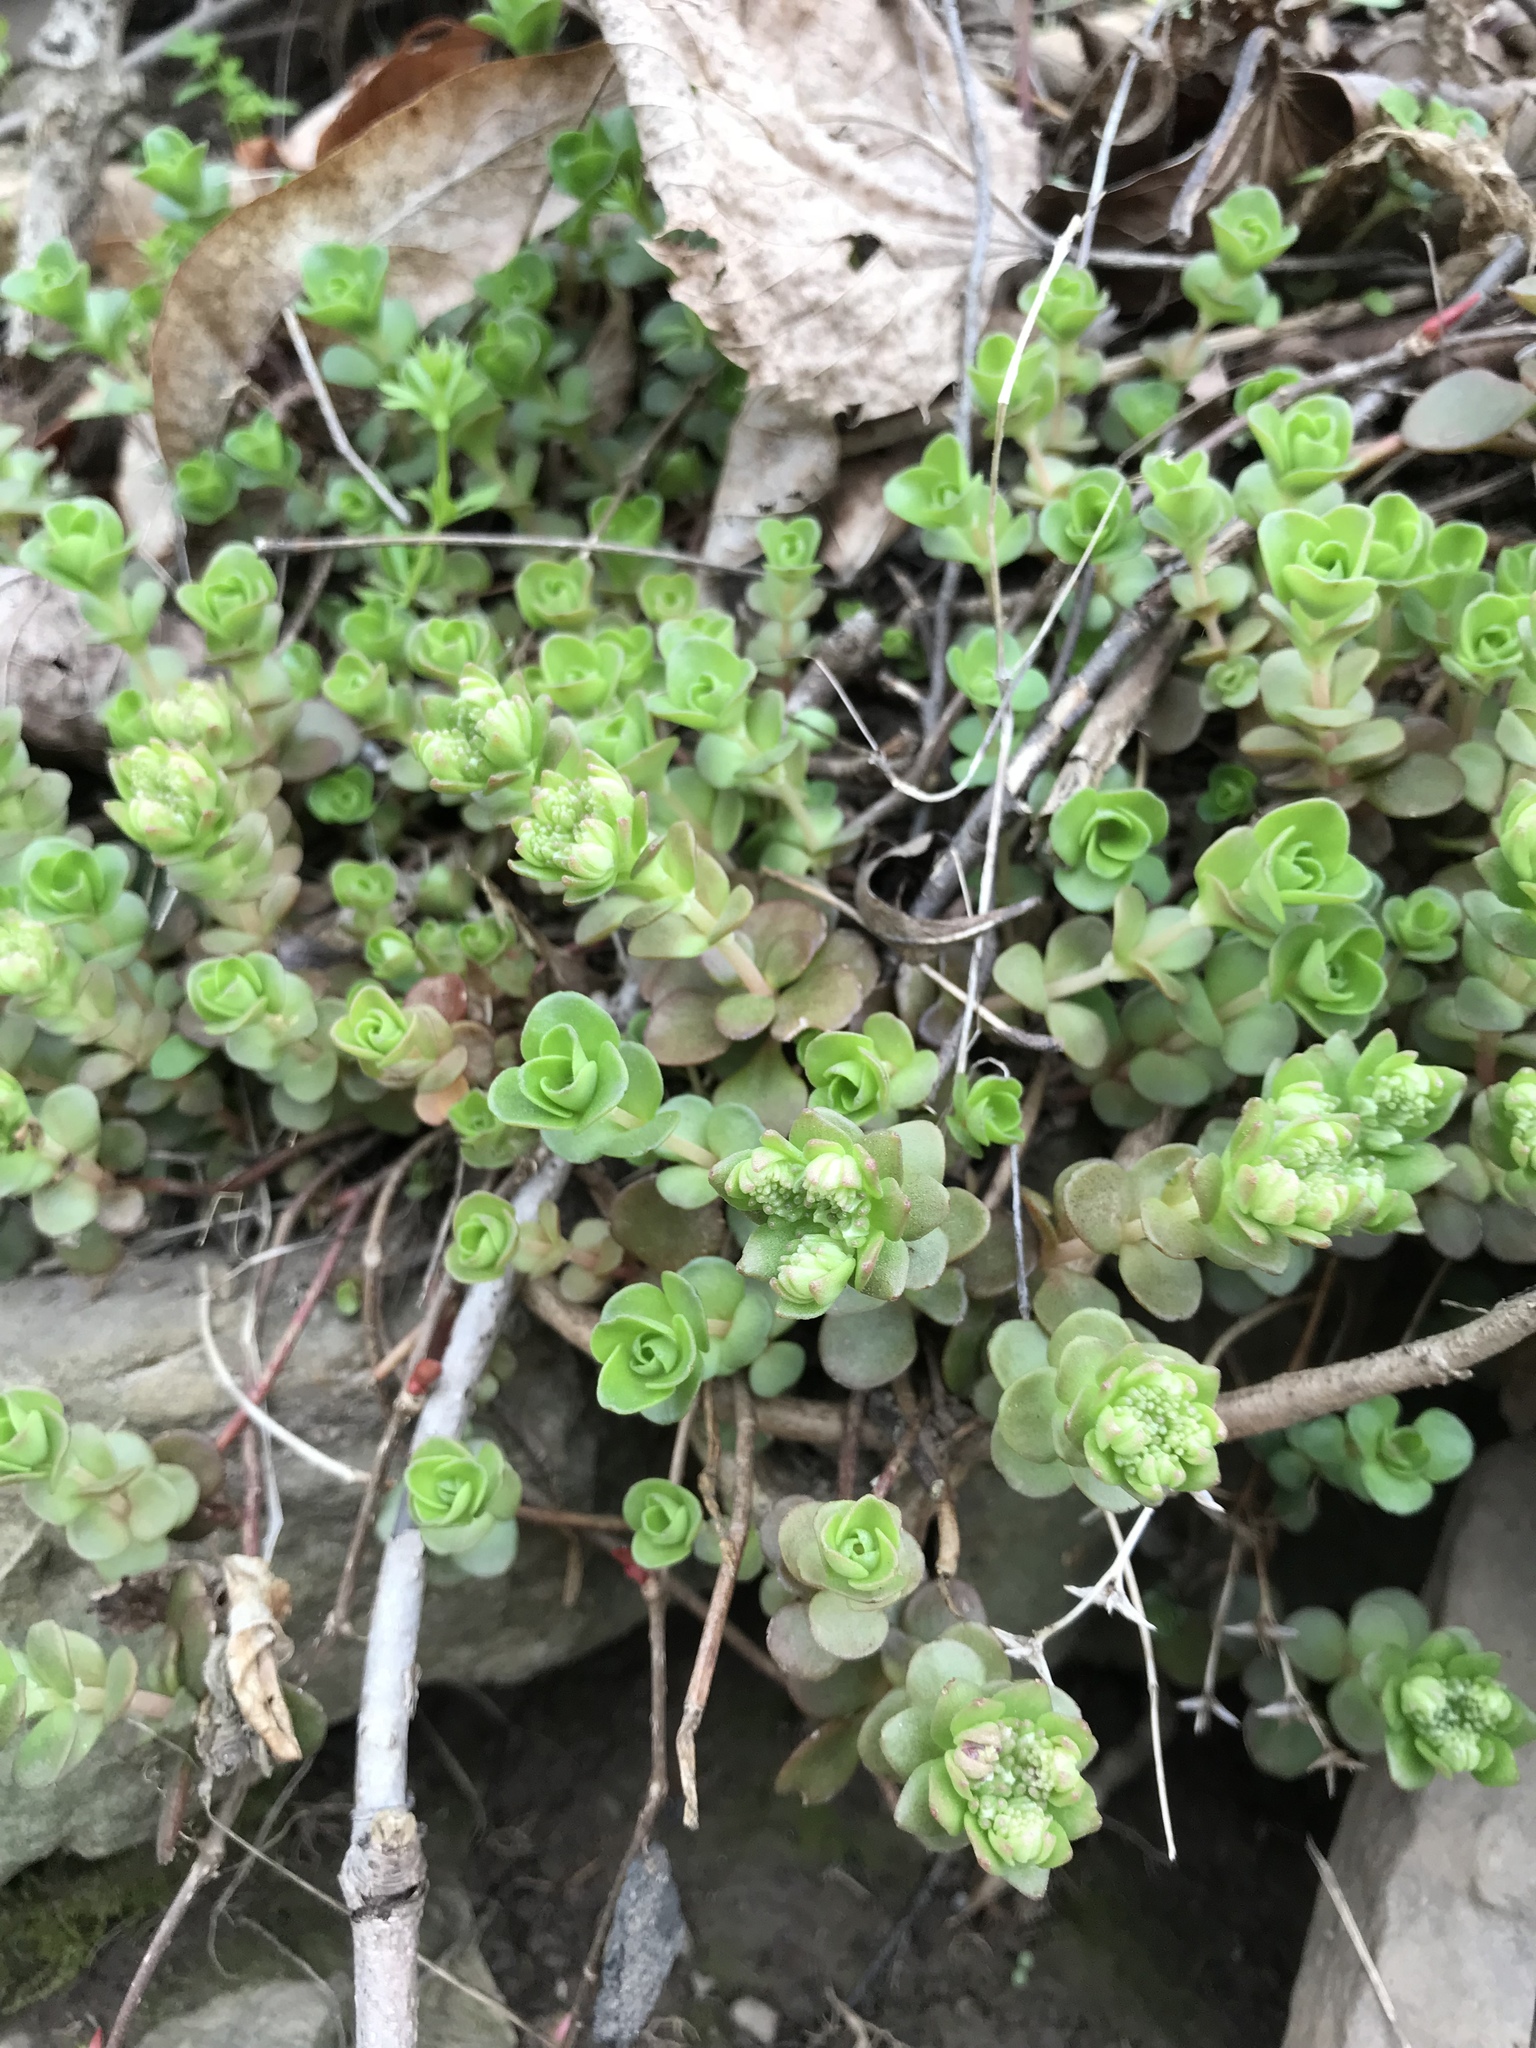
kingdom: Plantae
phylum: Tracheophyta
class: Magnoliopsida
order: Saxifragales
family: Crassulaceae
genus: Sedum
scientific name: Sedum ternatum
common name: Wild stonecrop
